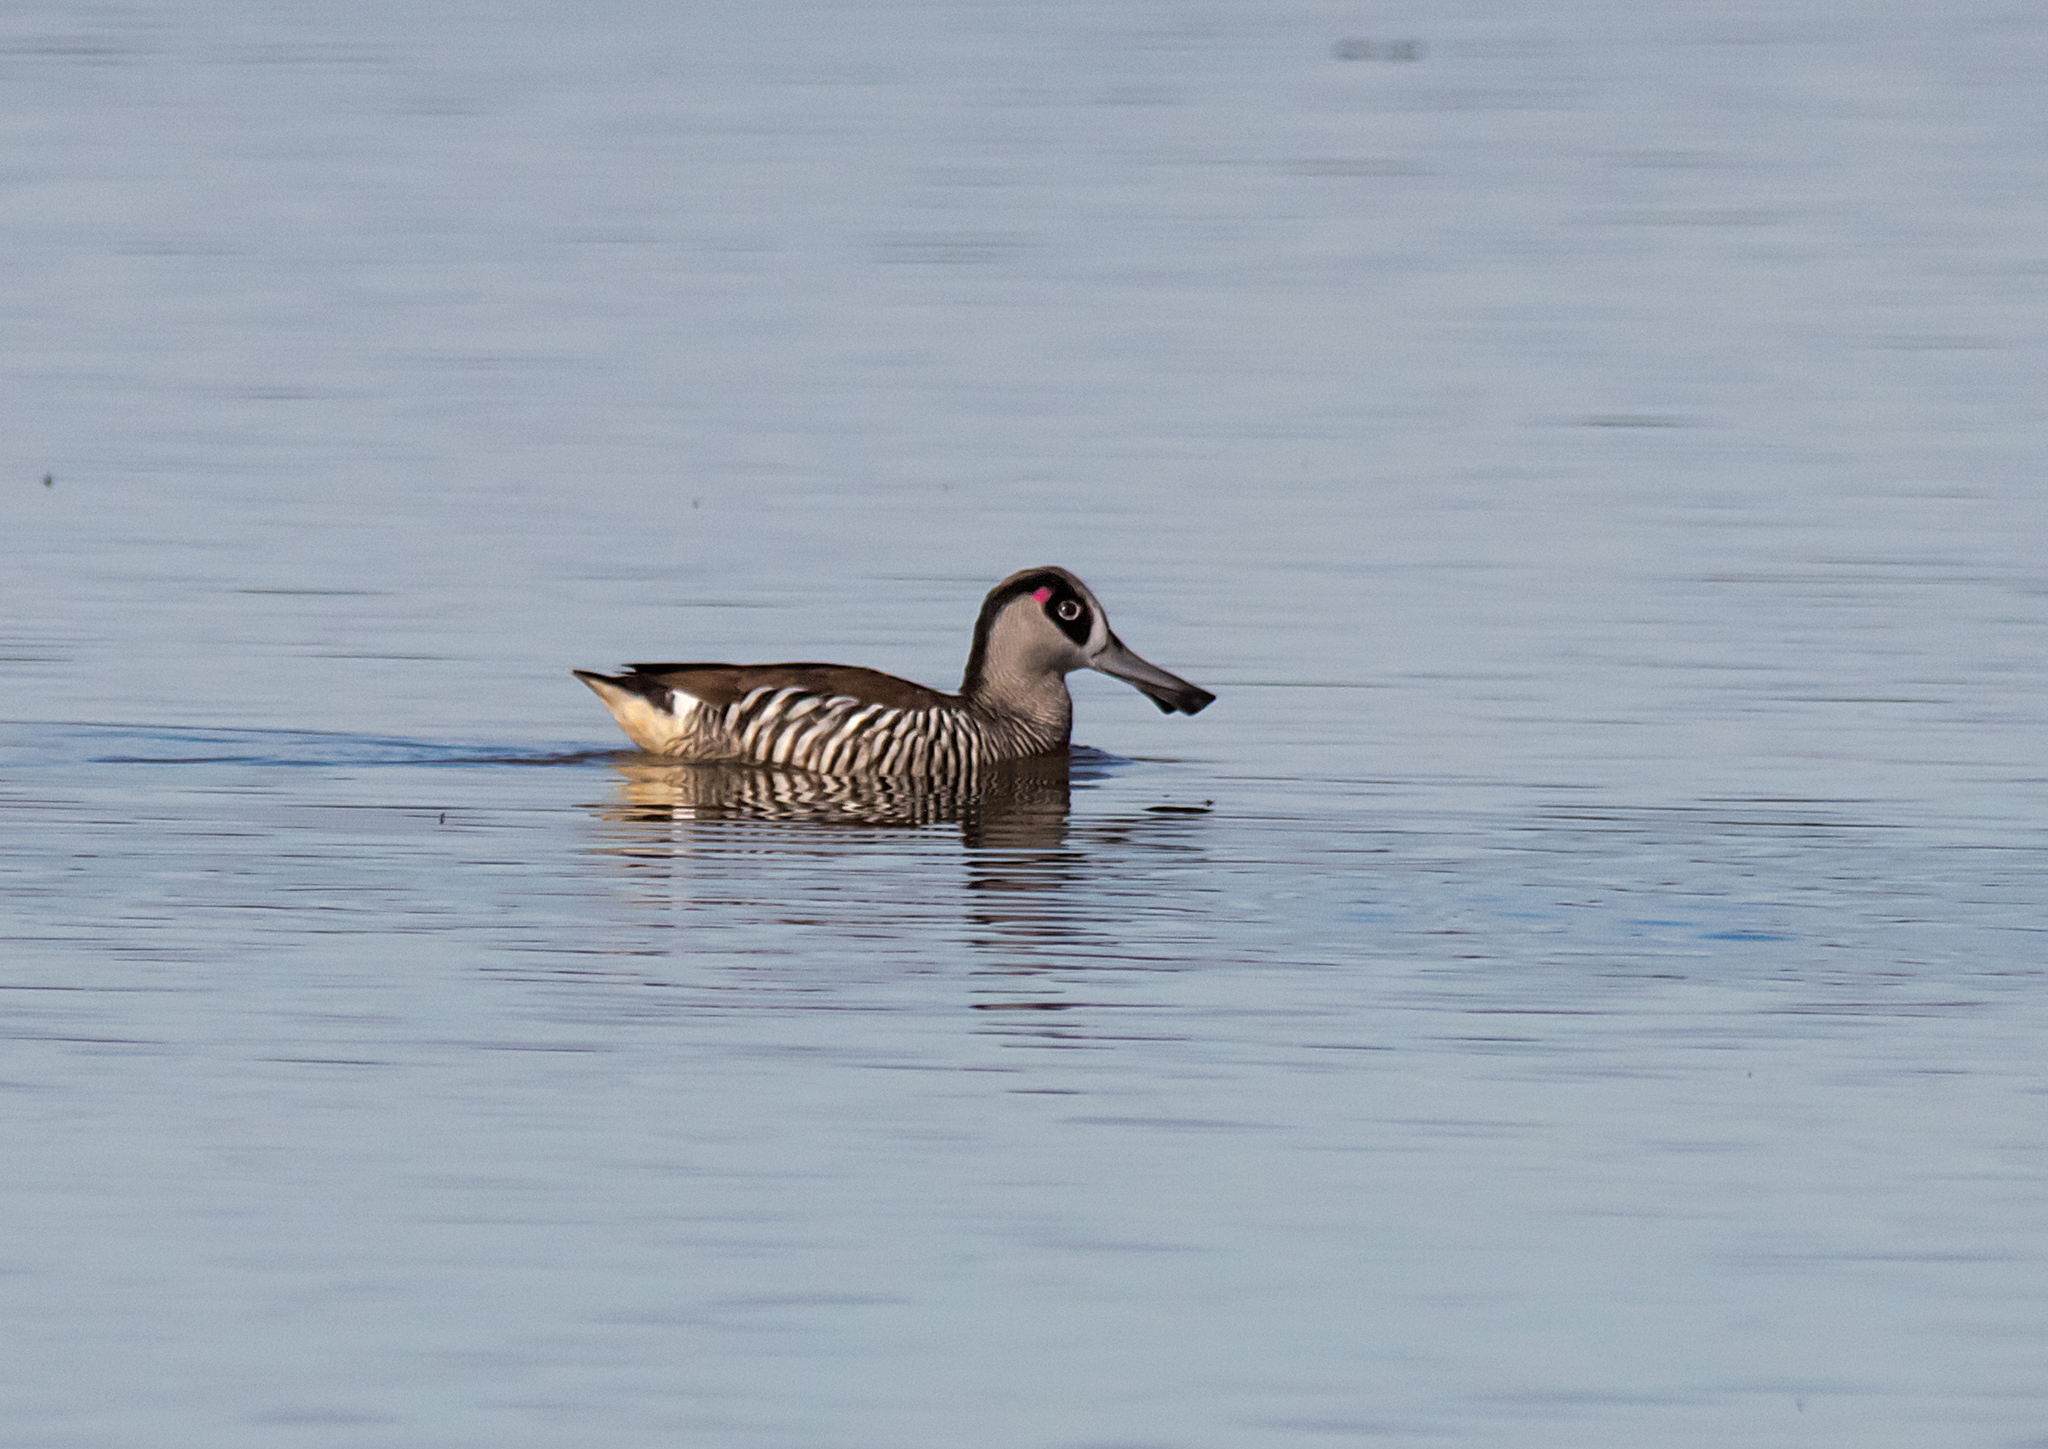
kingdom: Animalia
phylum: Chordata
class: Aves
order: Anseriformes
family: Anatidae
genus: Malacorhynchus
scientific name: Malacorhynchus membranaceus
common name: Pink-eared duck
